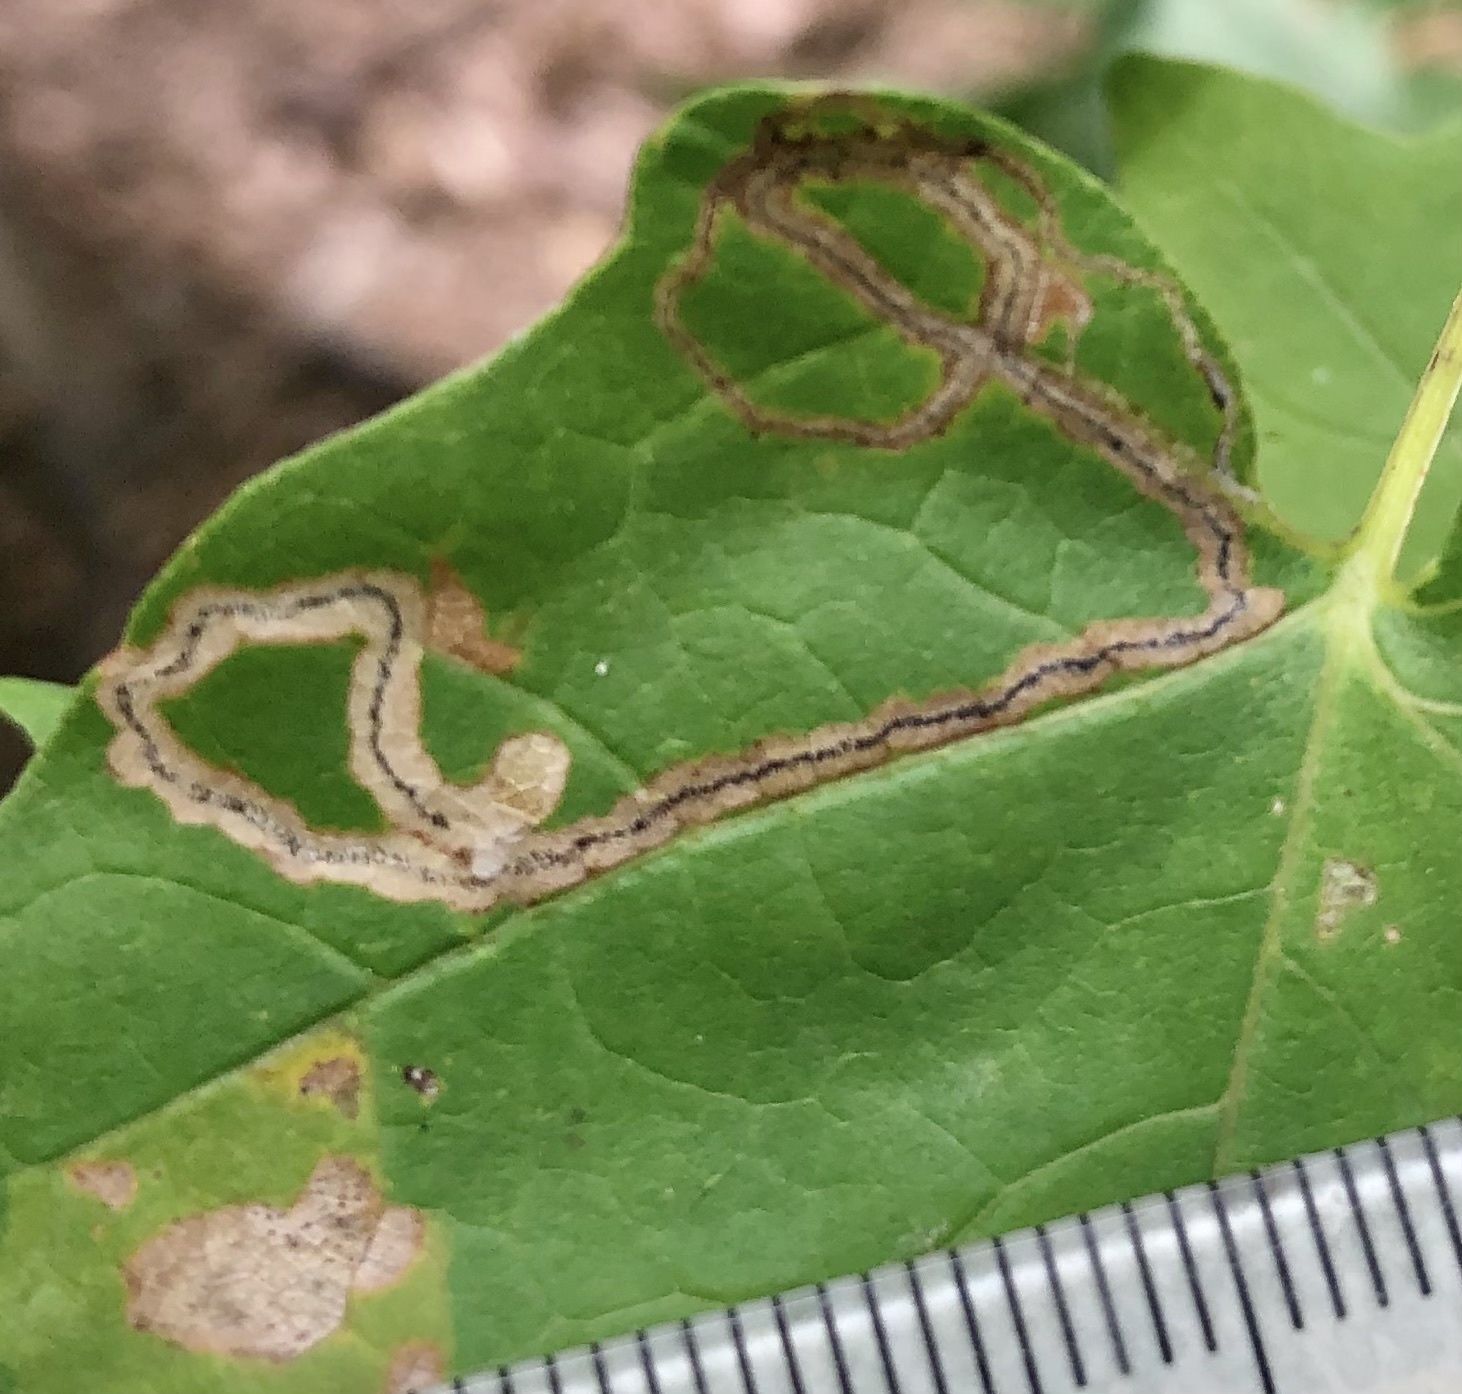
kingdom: Animalia
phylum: Arthropoda
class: Insecta
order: Lepidoptera
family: Nepticulidae
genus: Glaucolepis
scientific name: Glaucolepis saccharella
